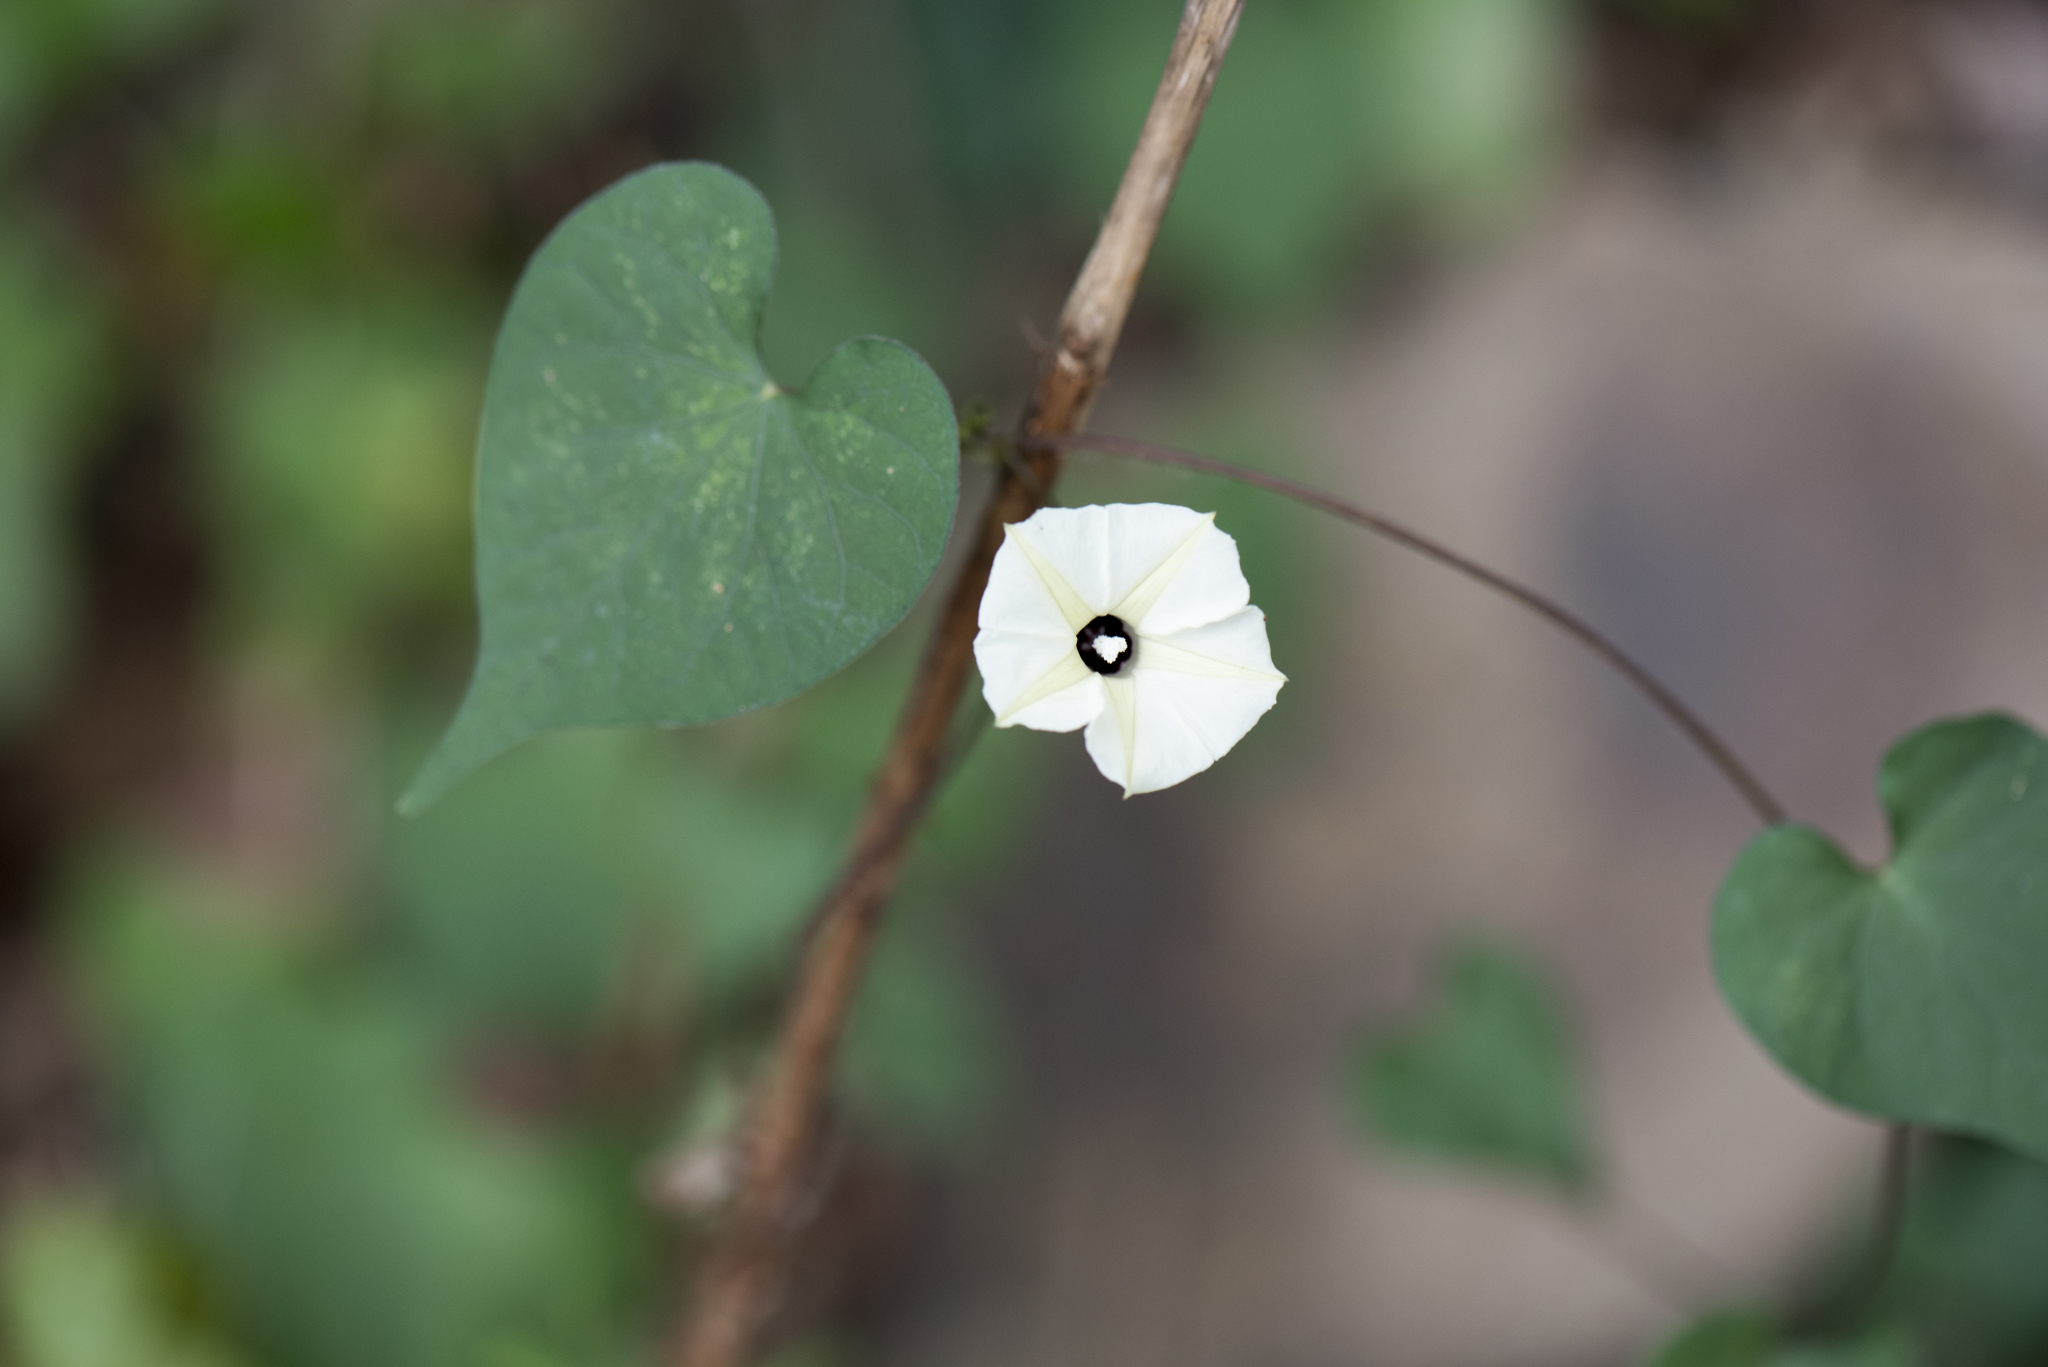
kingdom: Plantae
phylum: Tracheophyta
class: Magnoliopsida
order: Solanales
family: Convolvulaceae
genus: Ipomoea
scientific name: Ipomoea obscura
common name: Obscure morning-glory
